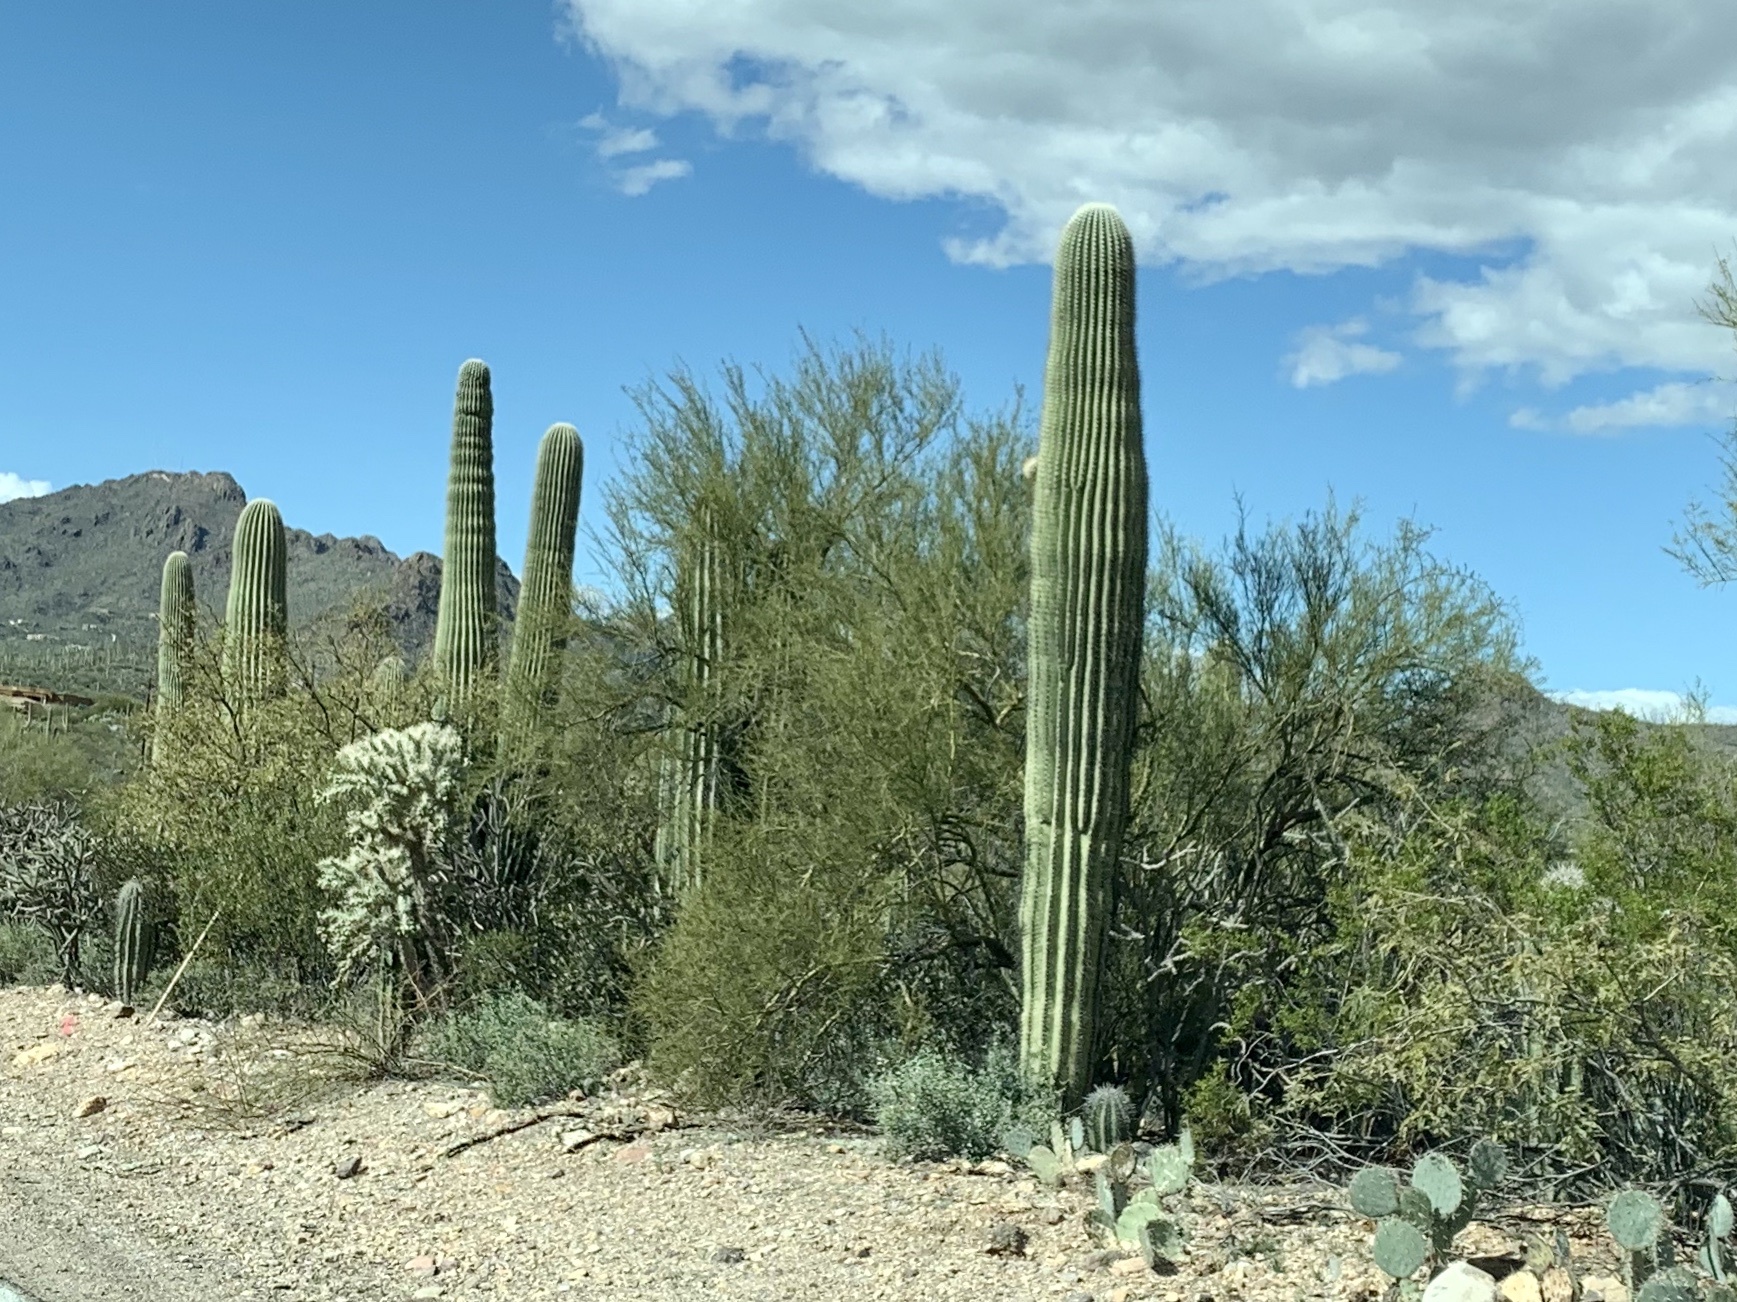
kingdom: Plantae
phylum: Tracheophyta
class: Magnoliopsida
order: Caryophyllales
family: Cactaceae
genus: Carnegiea
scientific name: Carnegiea gigantea
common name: Saguaro
